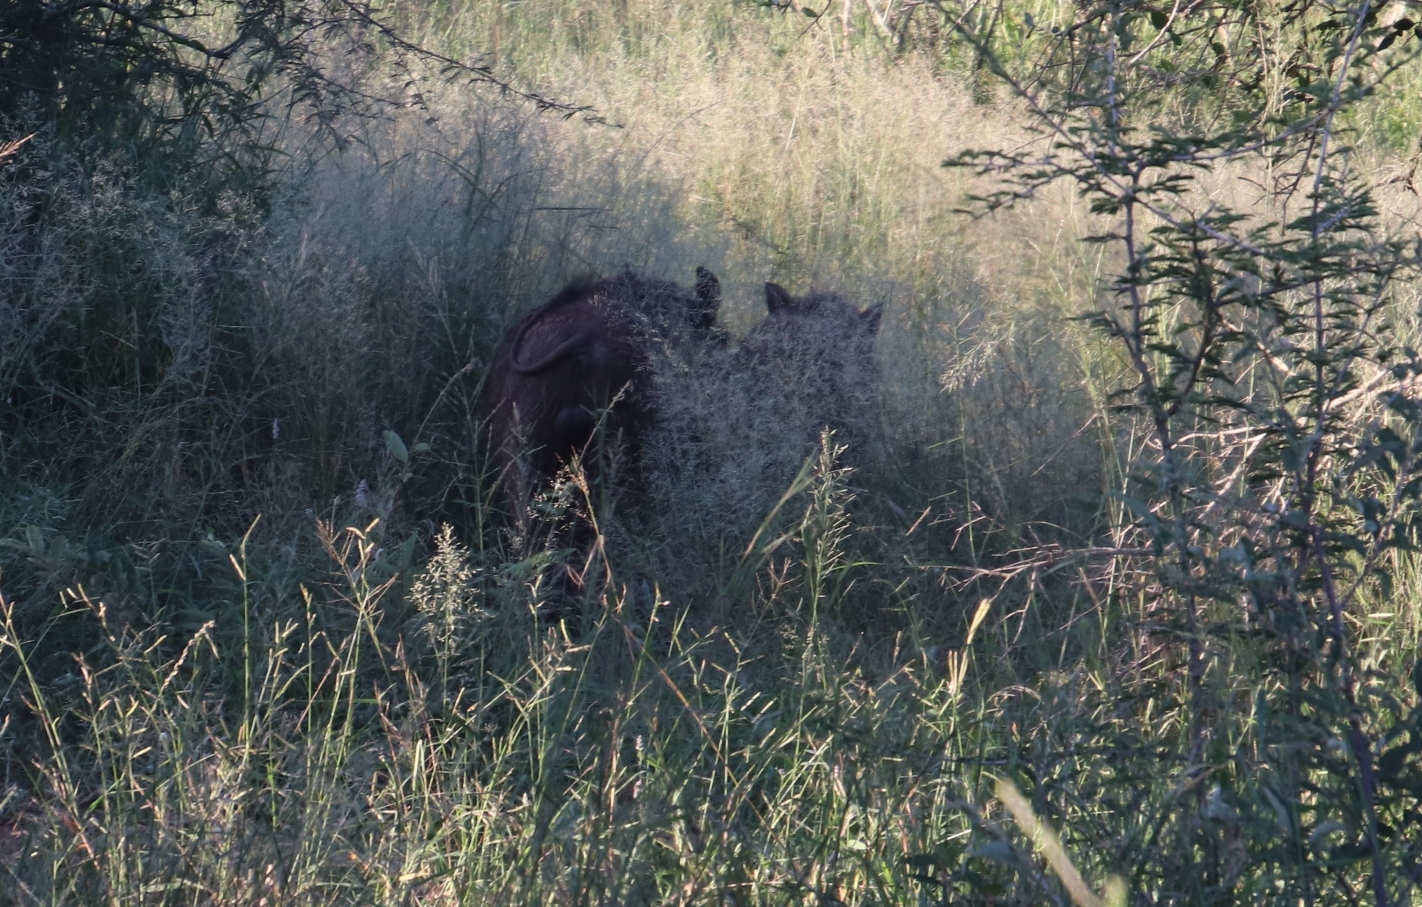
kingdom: Animalia
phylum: Chordata
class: Mammalia
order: Artiodactyla
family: Suidae
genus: Phacochoerus
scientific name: Phacochoerus africanus
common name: Common warthog
